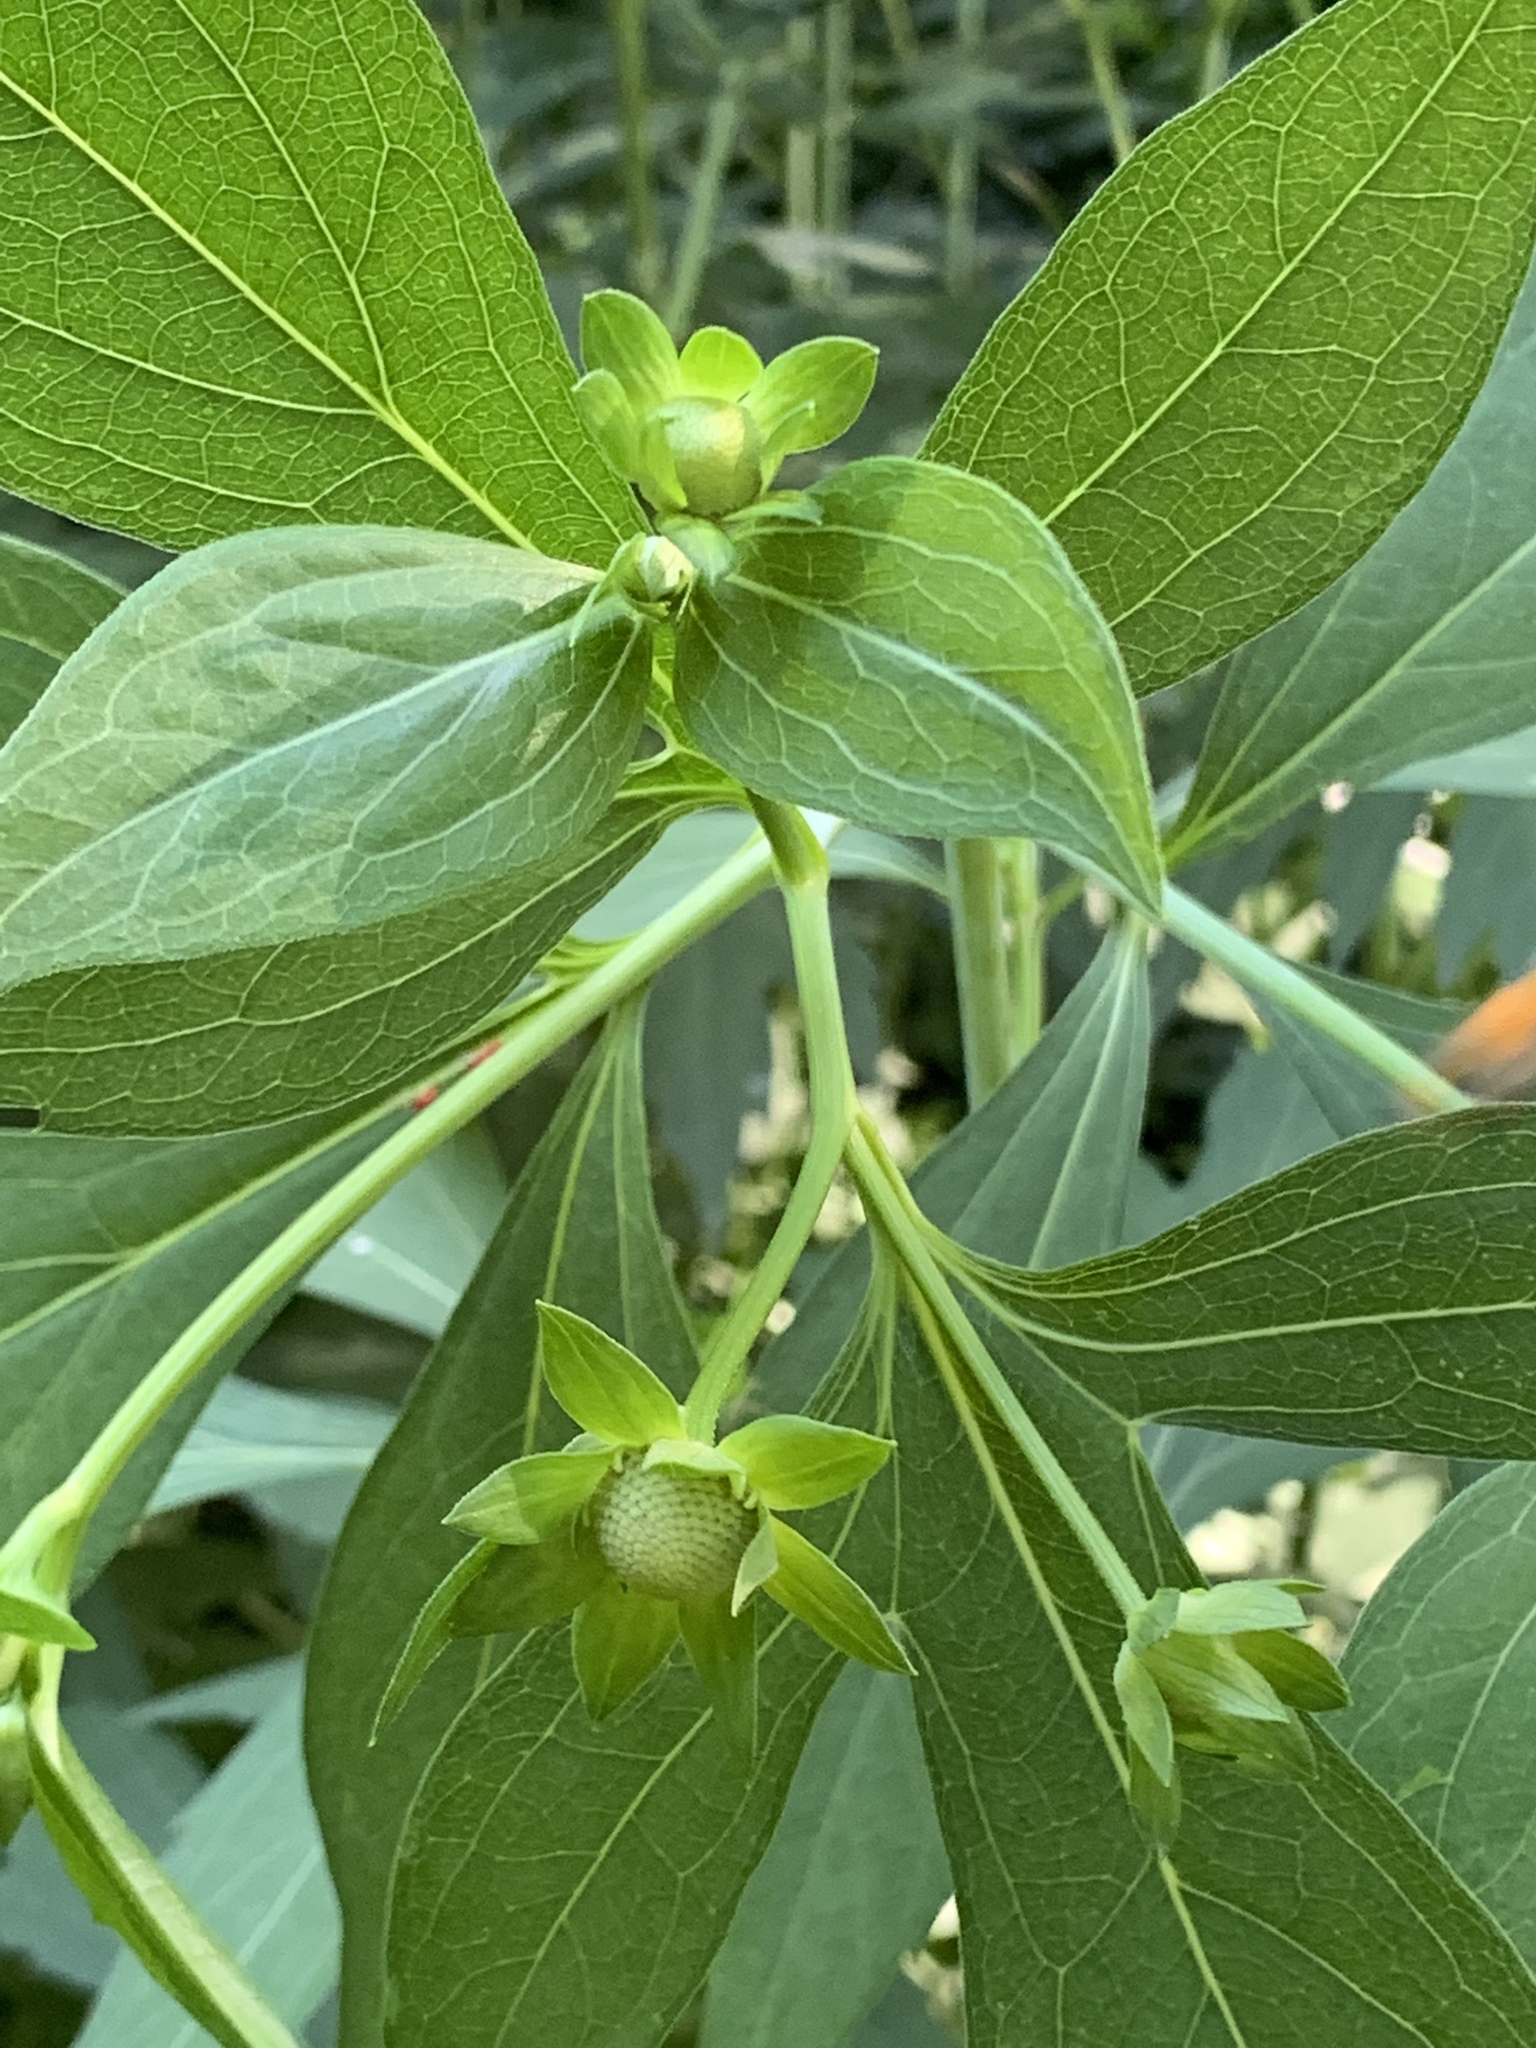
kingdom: Plantae
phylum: Tracheophyta
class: Magnoliopsida
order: Asterales
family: Asteraceae
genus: Rudbeckia
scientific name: Rudbeckia laciniata
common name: Coneflower
